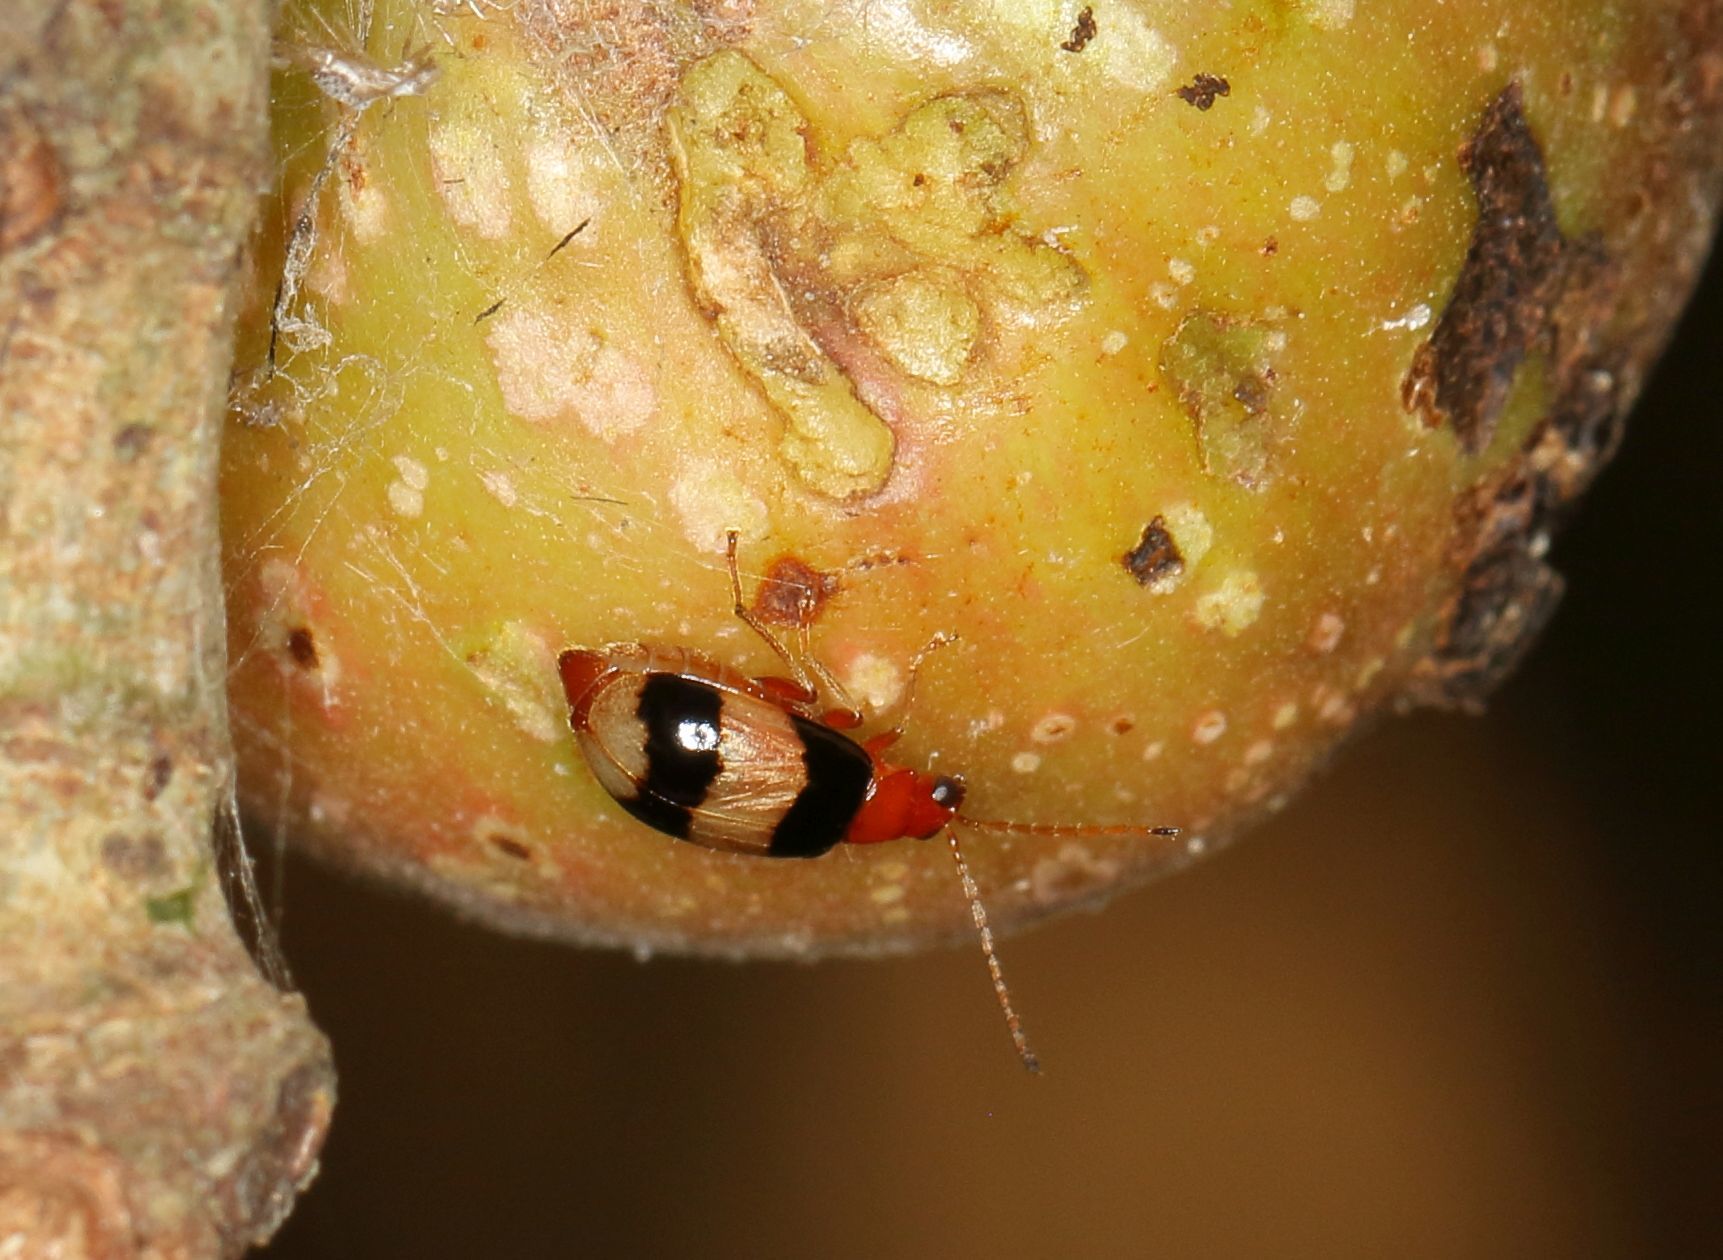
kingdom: Animalia
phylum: Arthropoda
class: Insecta
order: Coleoptera
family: Chrysomelidae
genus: Monolepta
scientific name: Monolepta
